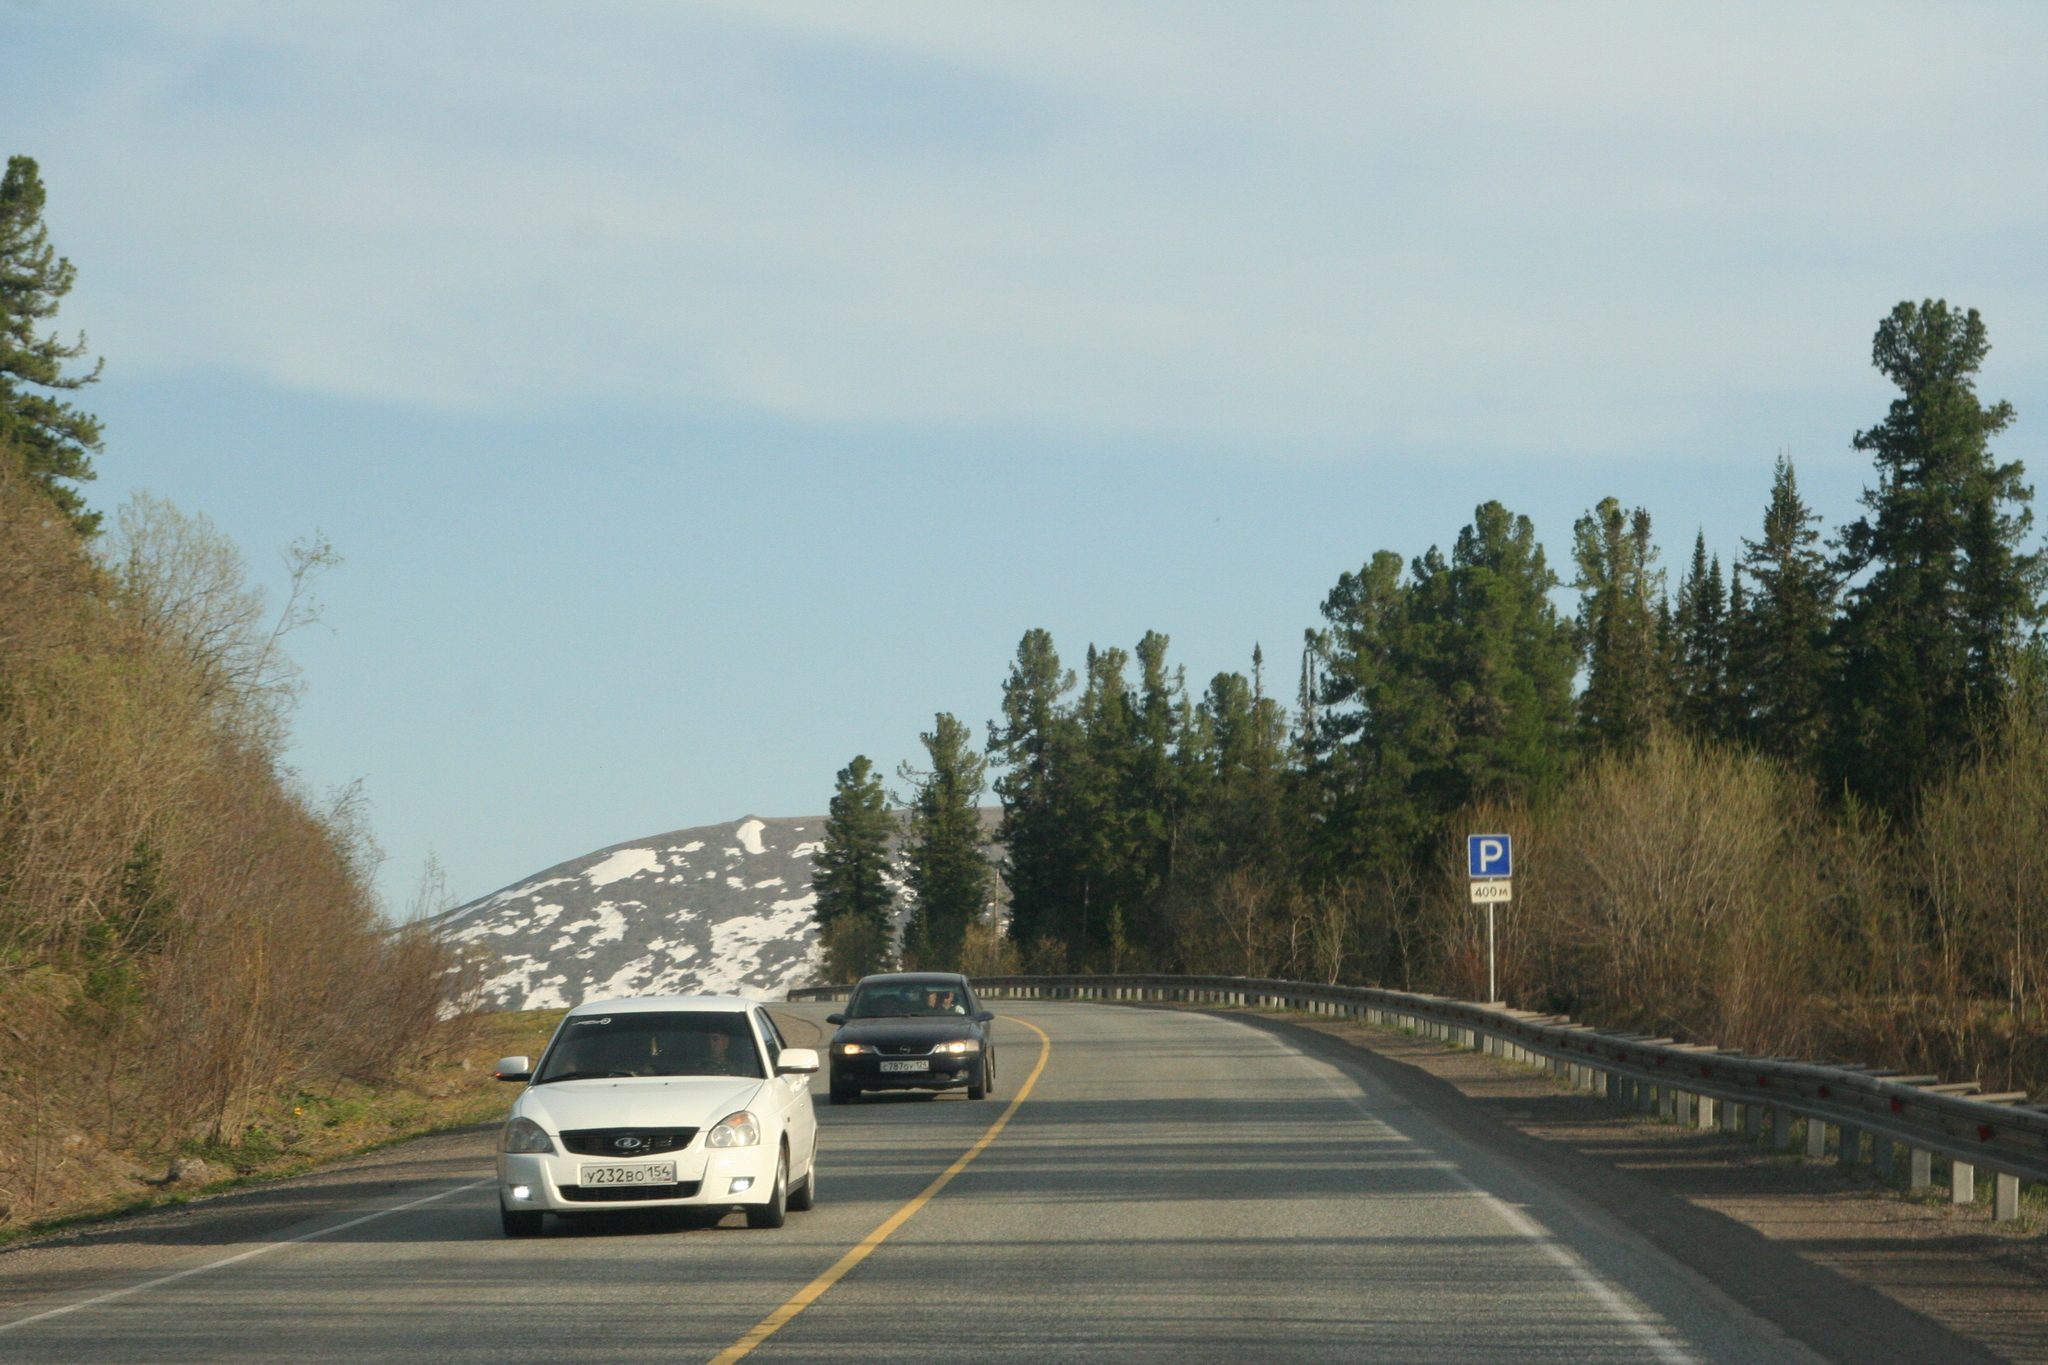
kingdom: Plantae
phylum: Tracheophyta
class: Pinopsida
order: Pinales
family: Pinaceae
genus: Pinus
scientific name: Pinus sibirica
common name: Siberian pine
